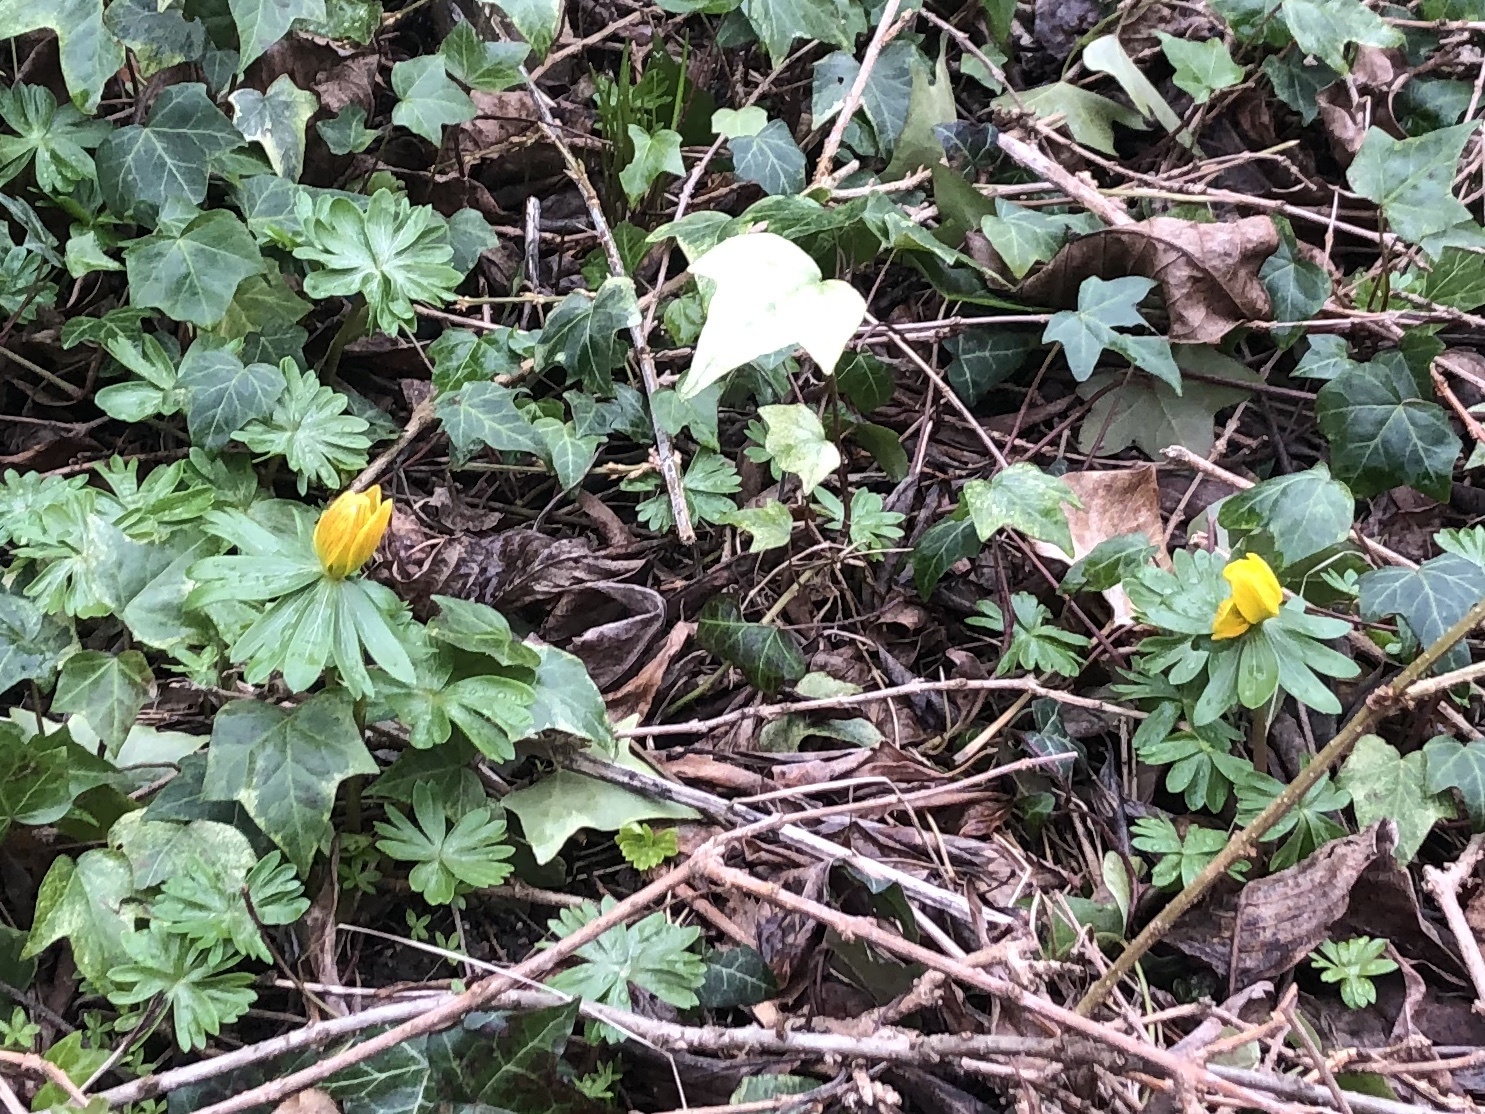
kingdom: Plantae
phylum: Tracheophyta
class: Magnoliopsida
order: Ranunculales
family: Ranunculaceae
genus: Eranthis
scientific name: Eranthis hyemalis
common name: Winter aconite
